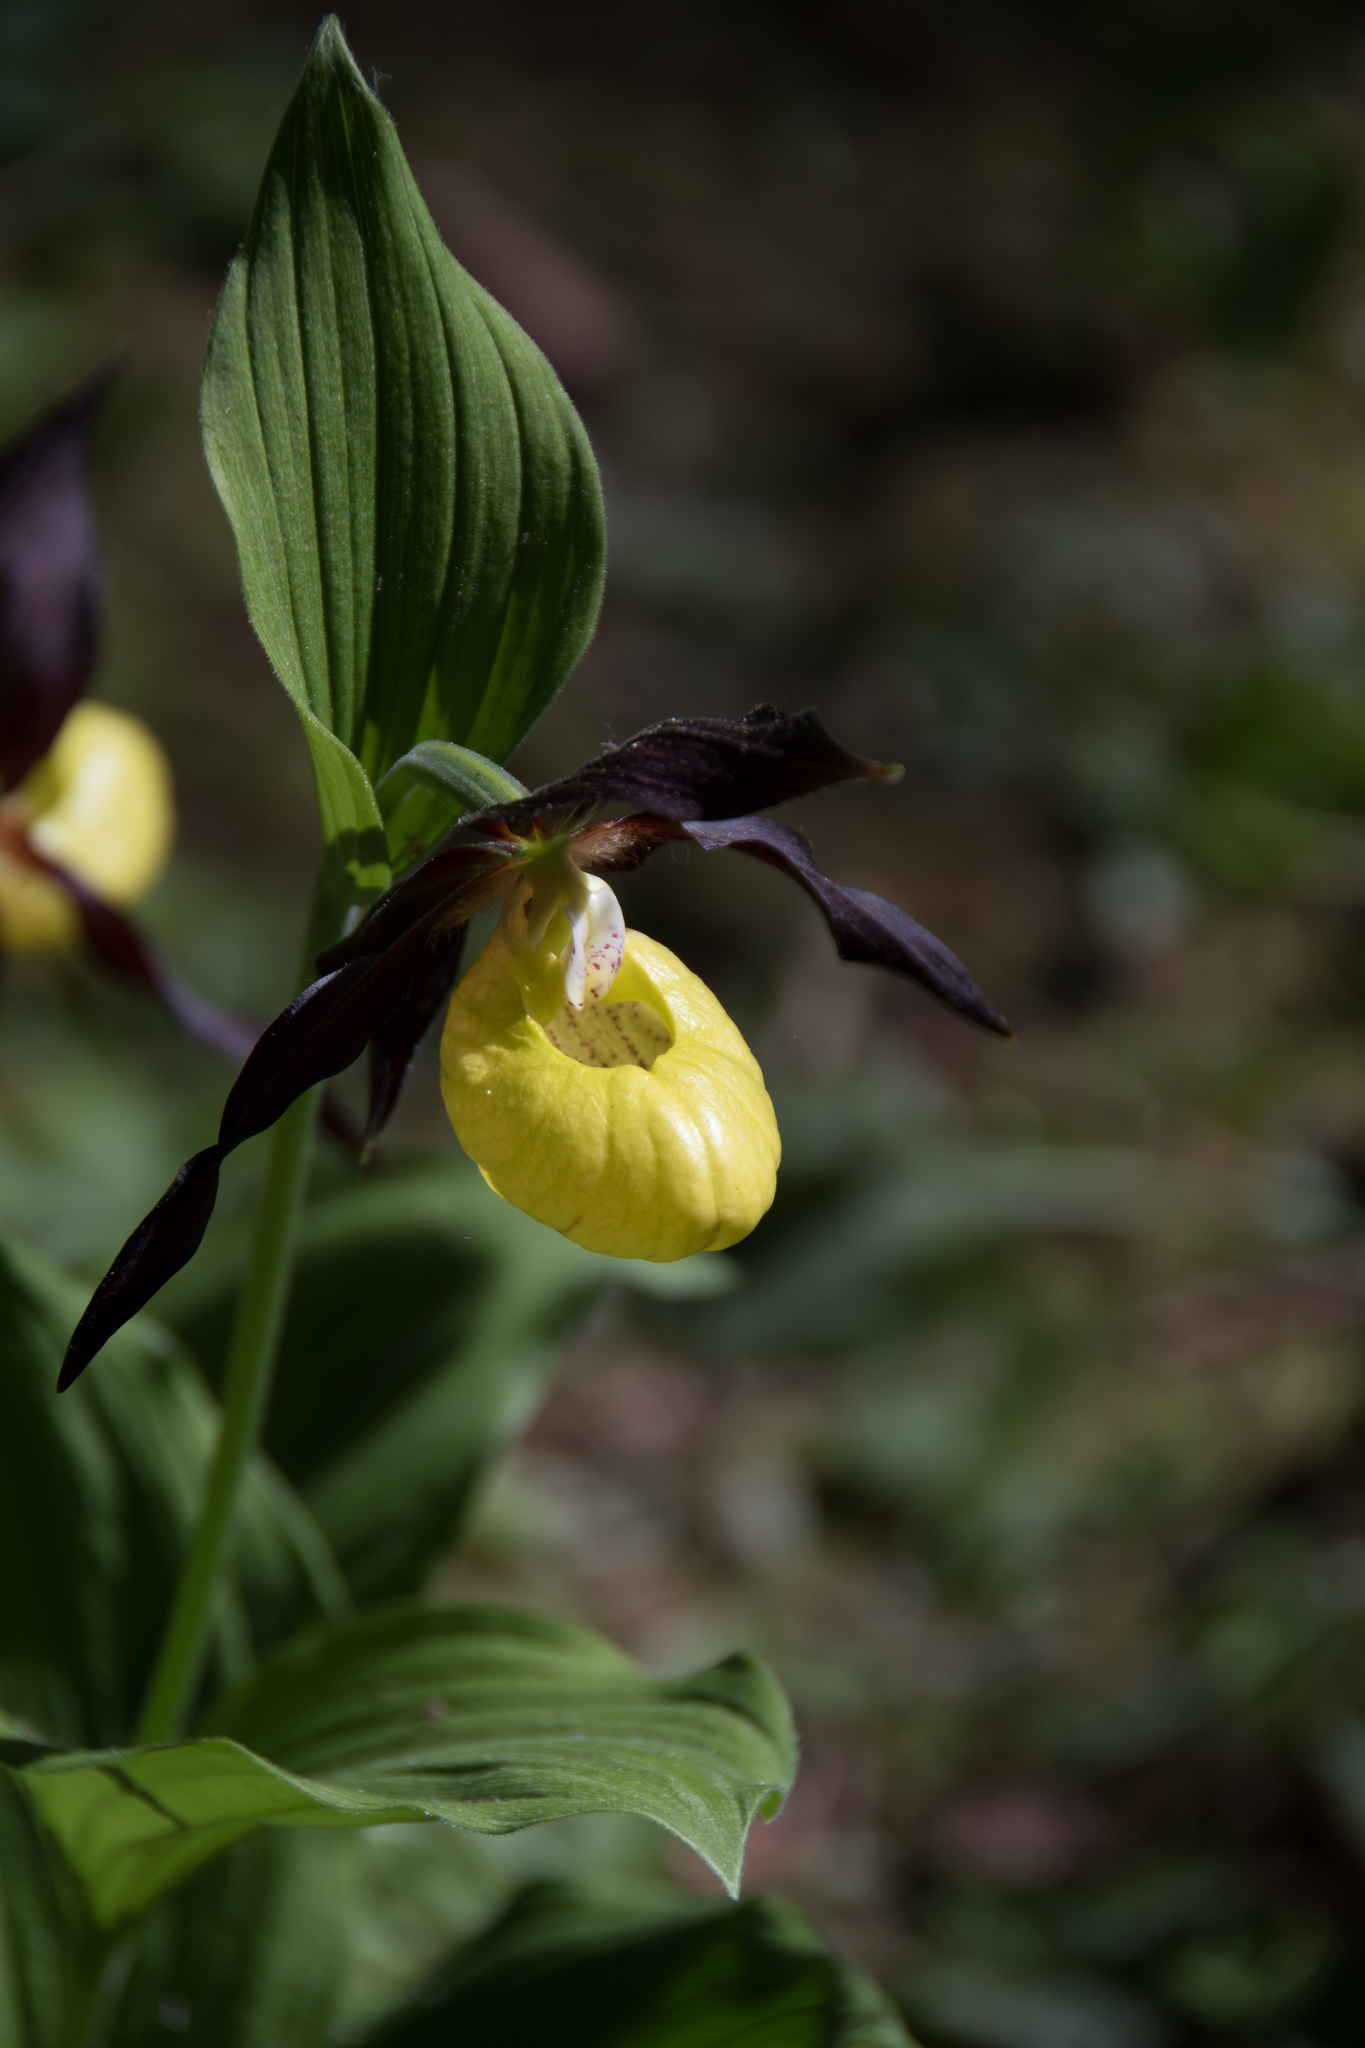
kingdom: Plantae
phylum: Tracheophyta
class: Liliopsida
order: Asparagales
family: Orchidaceae
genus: Cypripedium
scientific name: Cypripedium calceolus
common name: Lady's-slipper
